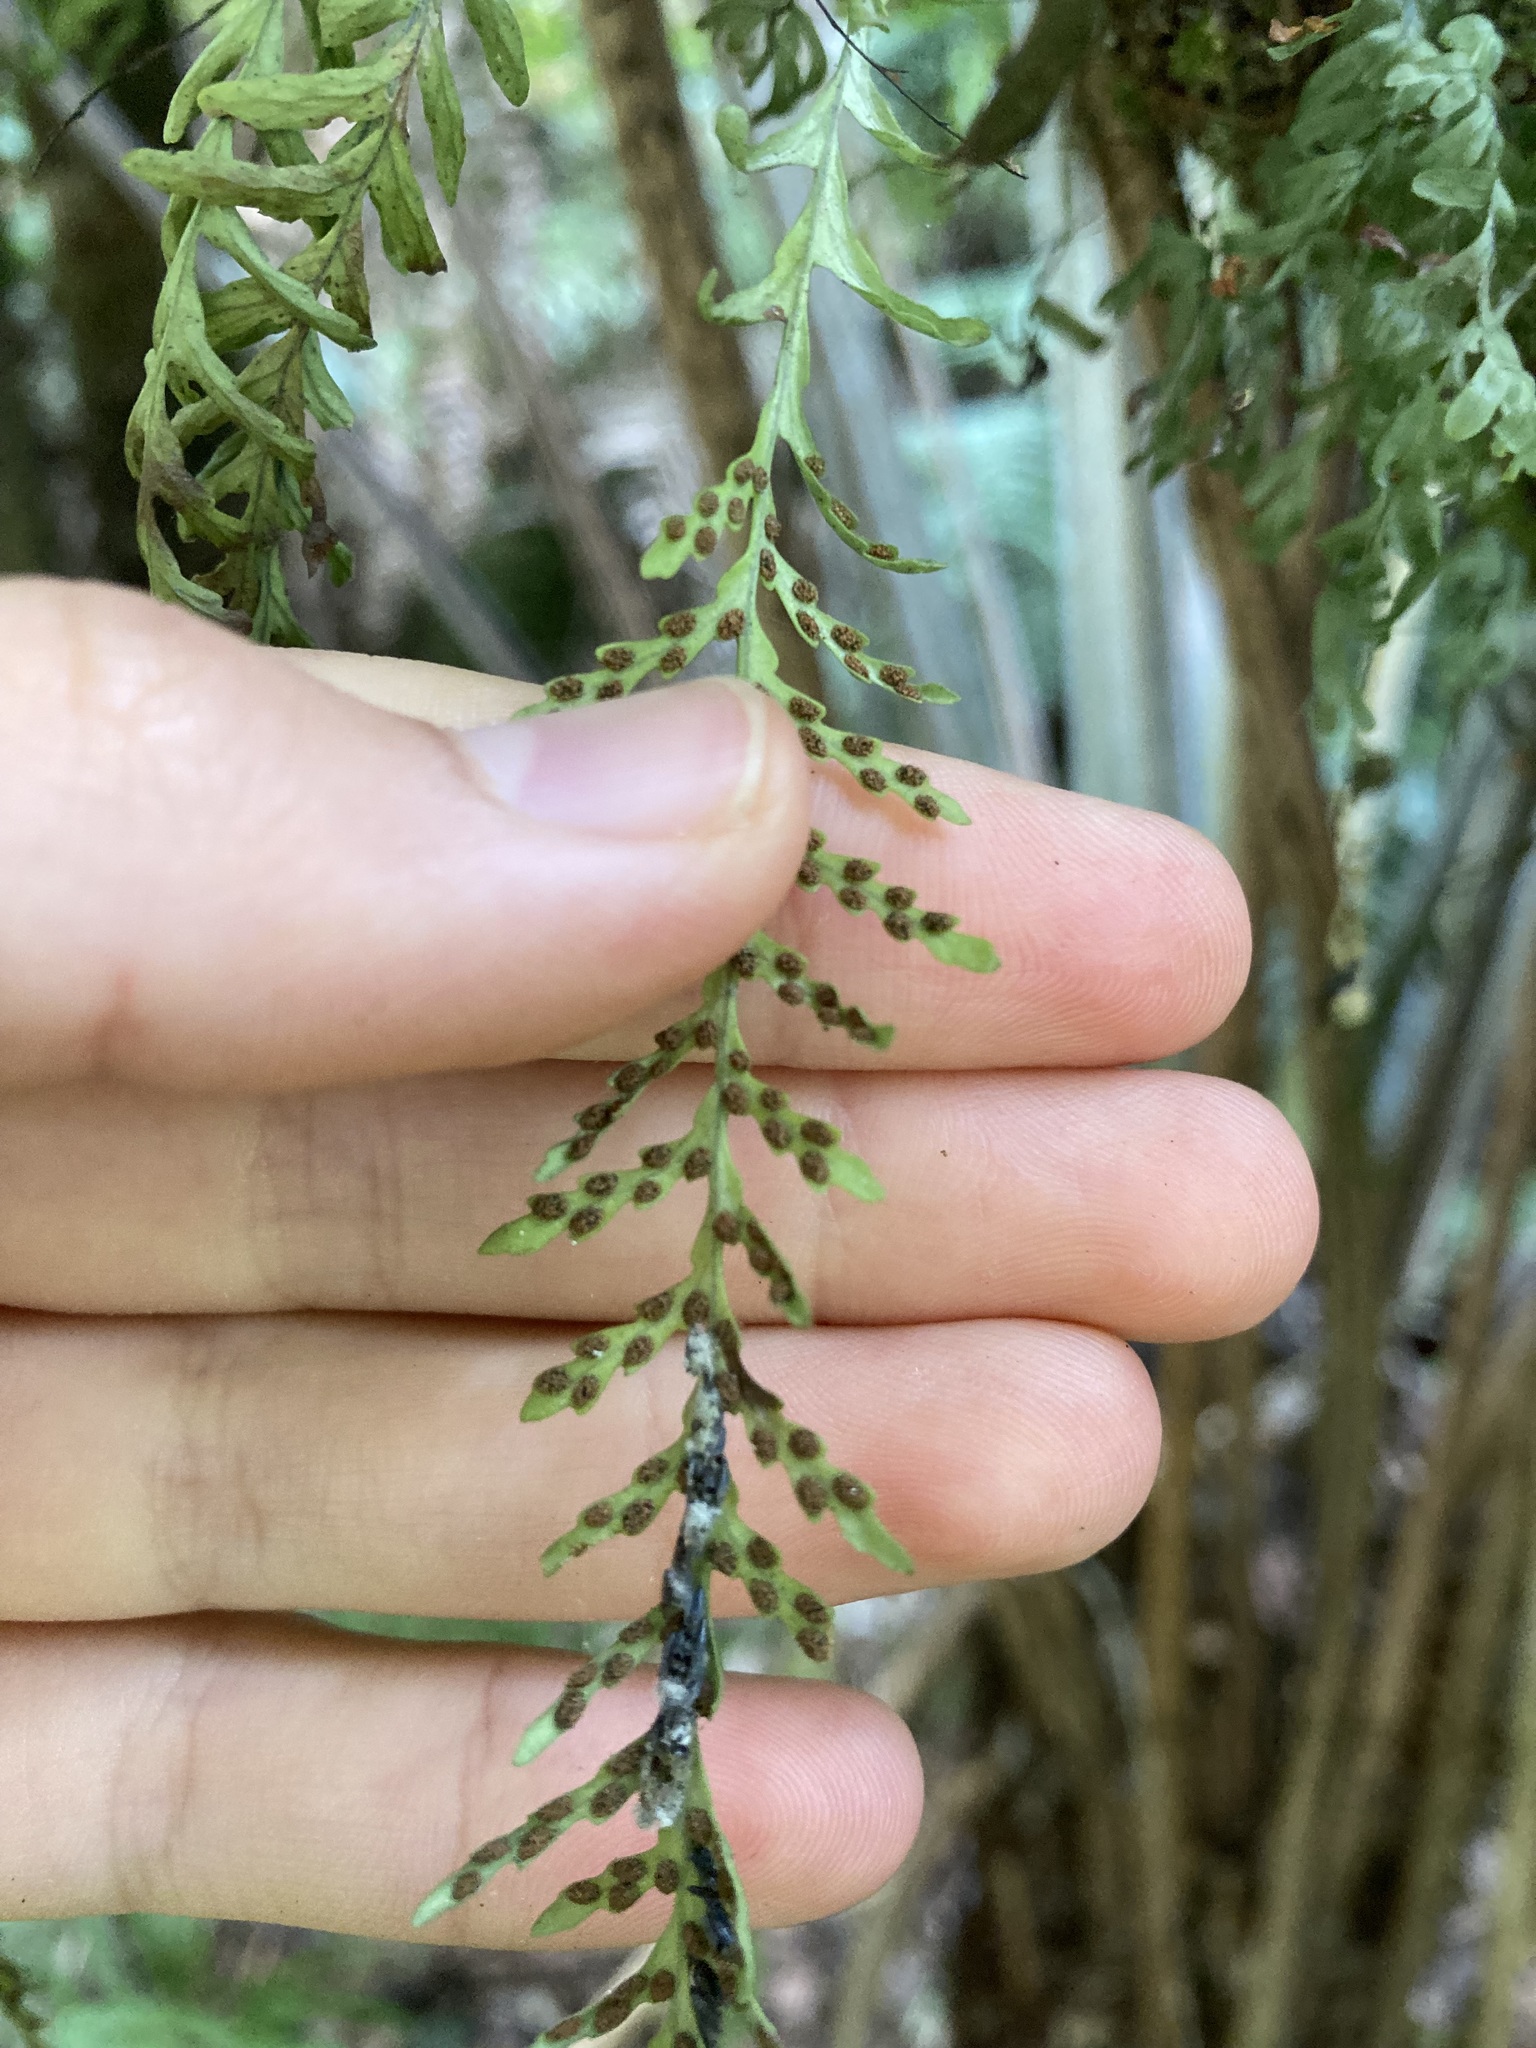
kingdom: Plantae
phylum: Tracheophyta
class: Polypodiopsida
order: Polypodiales
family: Polypodiaceae
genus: Notogrammitis
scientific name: Notogrammitis heterophylla
